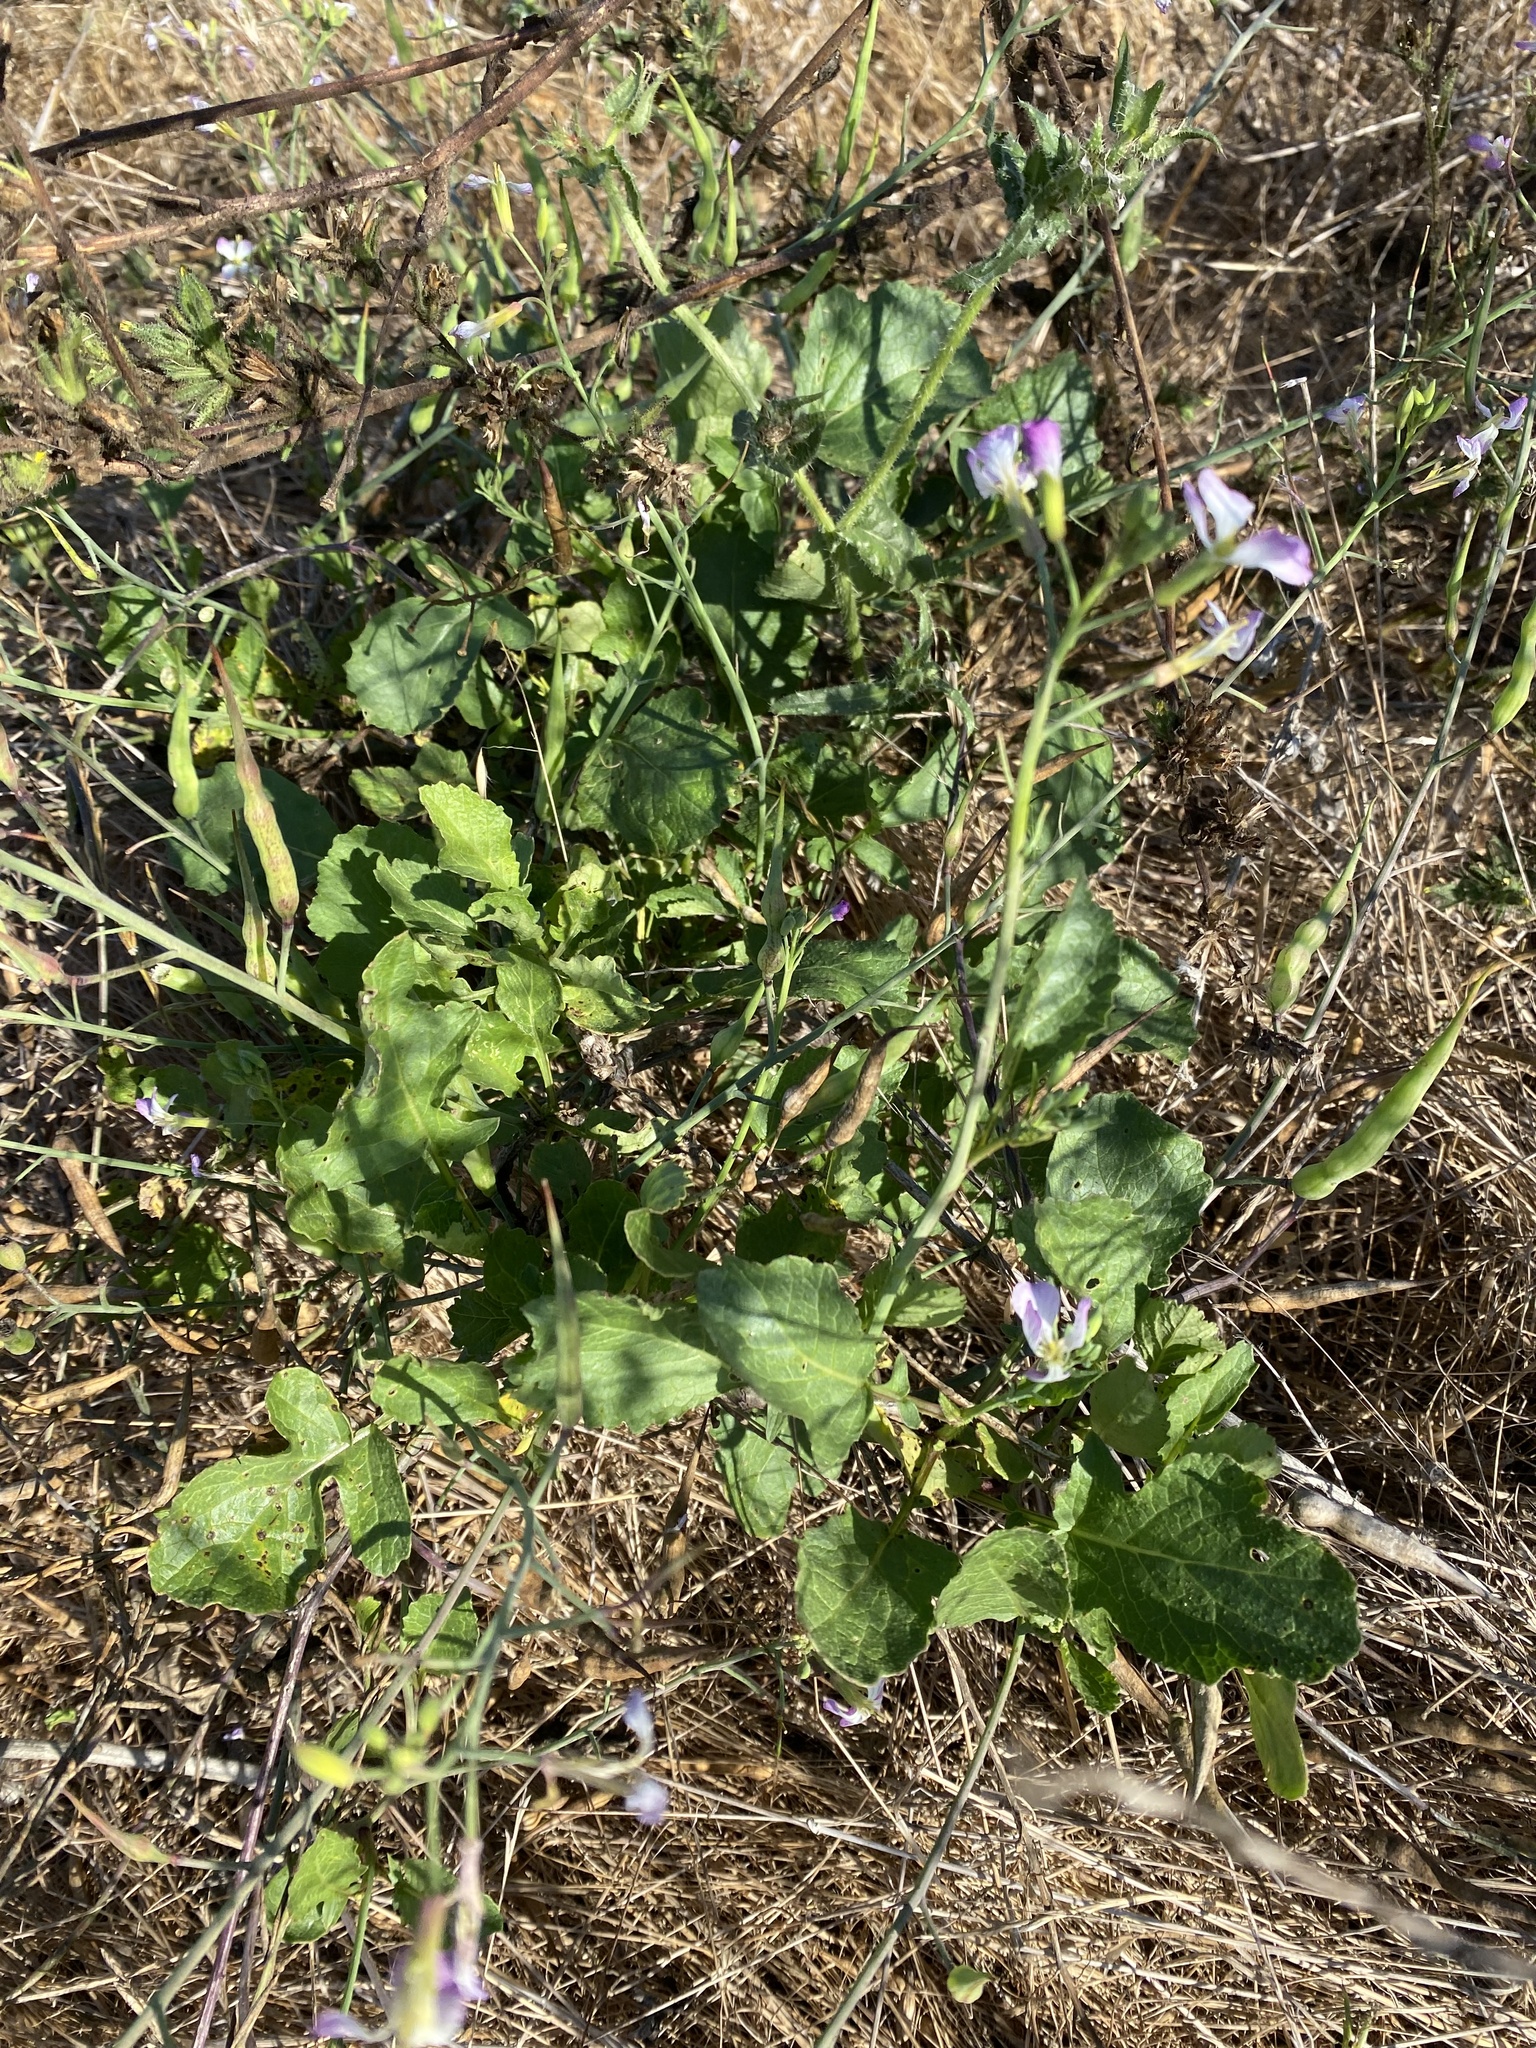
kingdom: Plantae
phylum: Tracheophyta
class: Magnoliopsida
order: Brassicales
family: Brassicaceae
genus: Raphanus
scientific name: Raphanus sativus
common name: Cultivated radish
